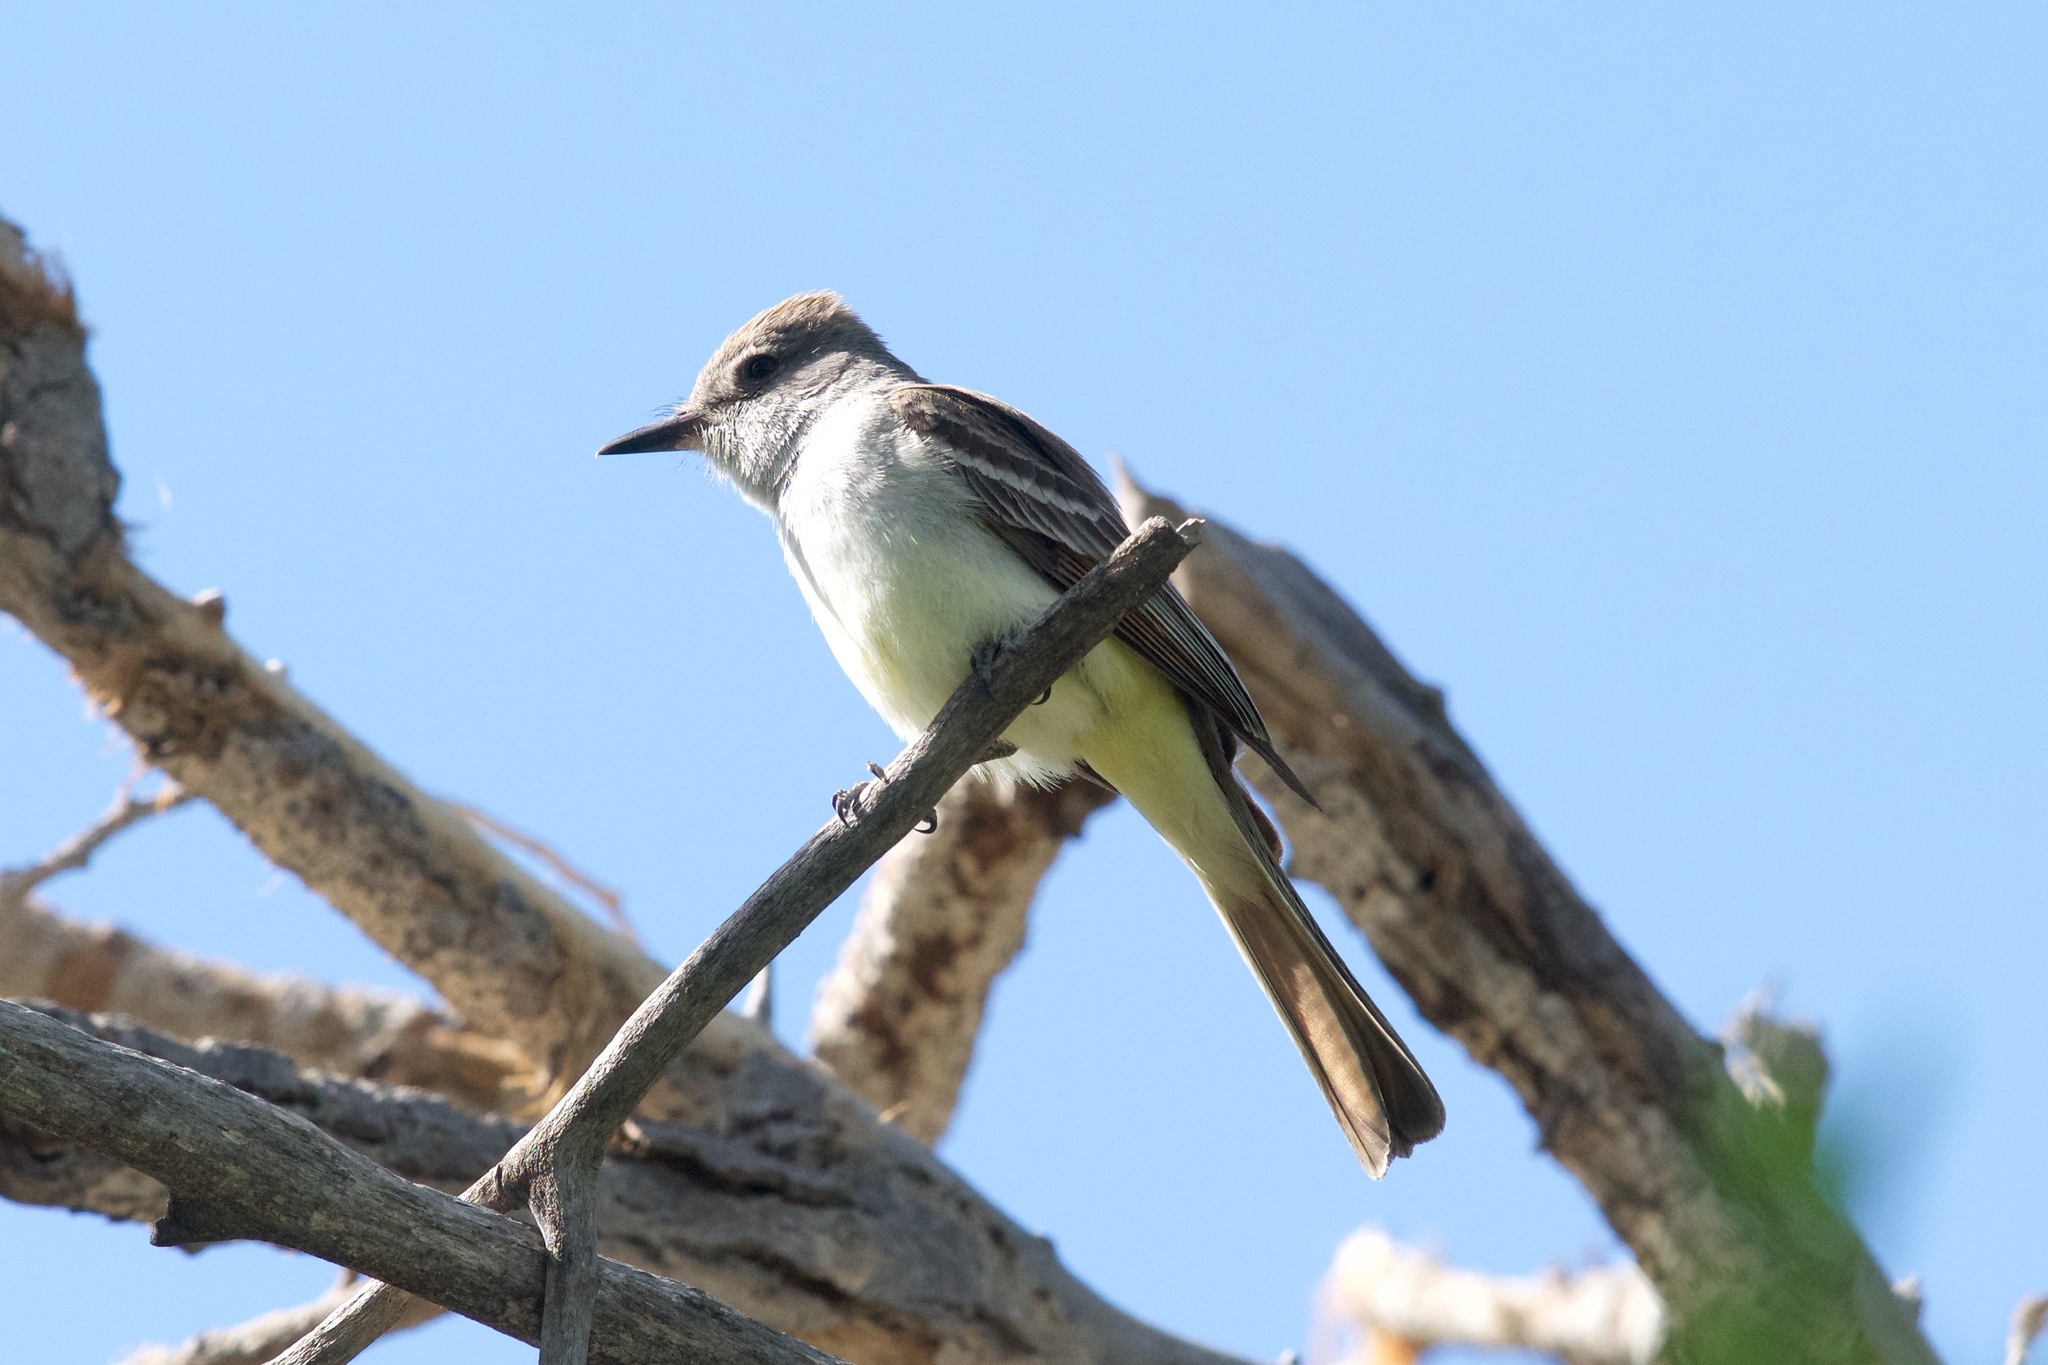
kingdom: Animalia
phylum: Chordata
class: Aves
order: Passeriformes
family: Tyrannidae
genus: Myiarchus
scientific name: Myiarchus cinerascens
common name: Ash-throated flycatcher
